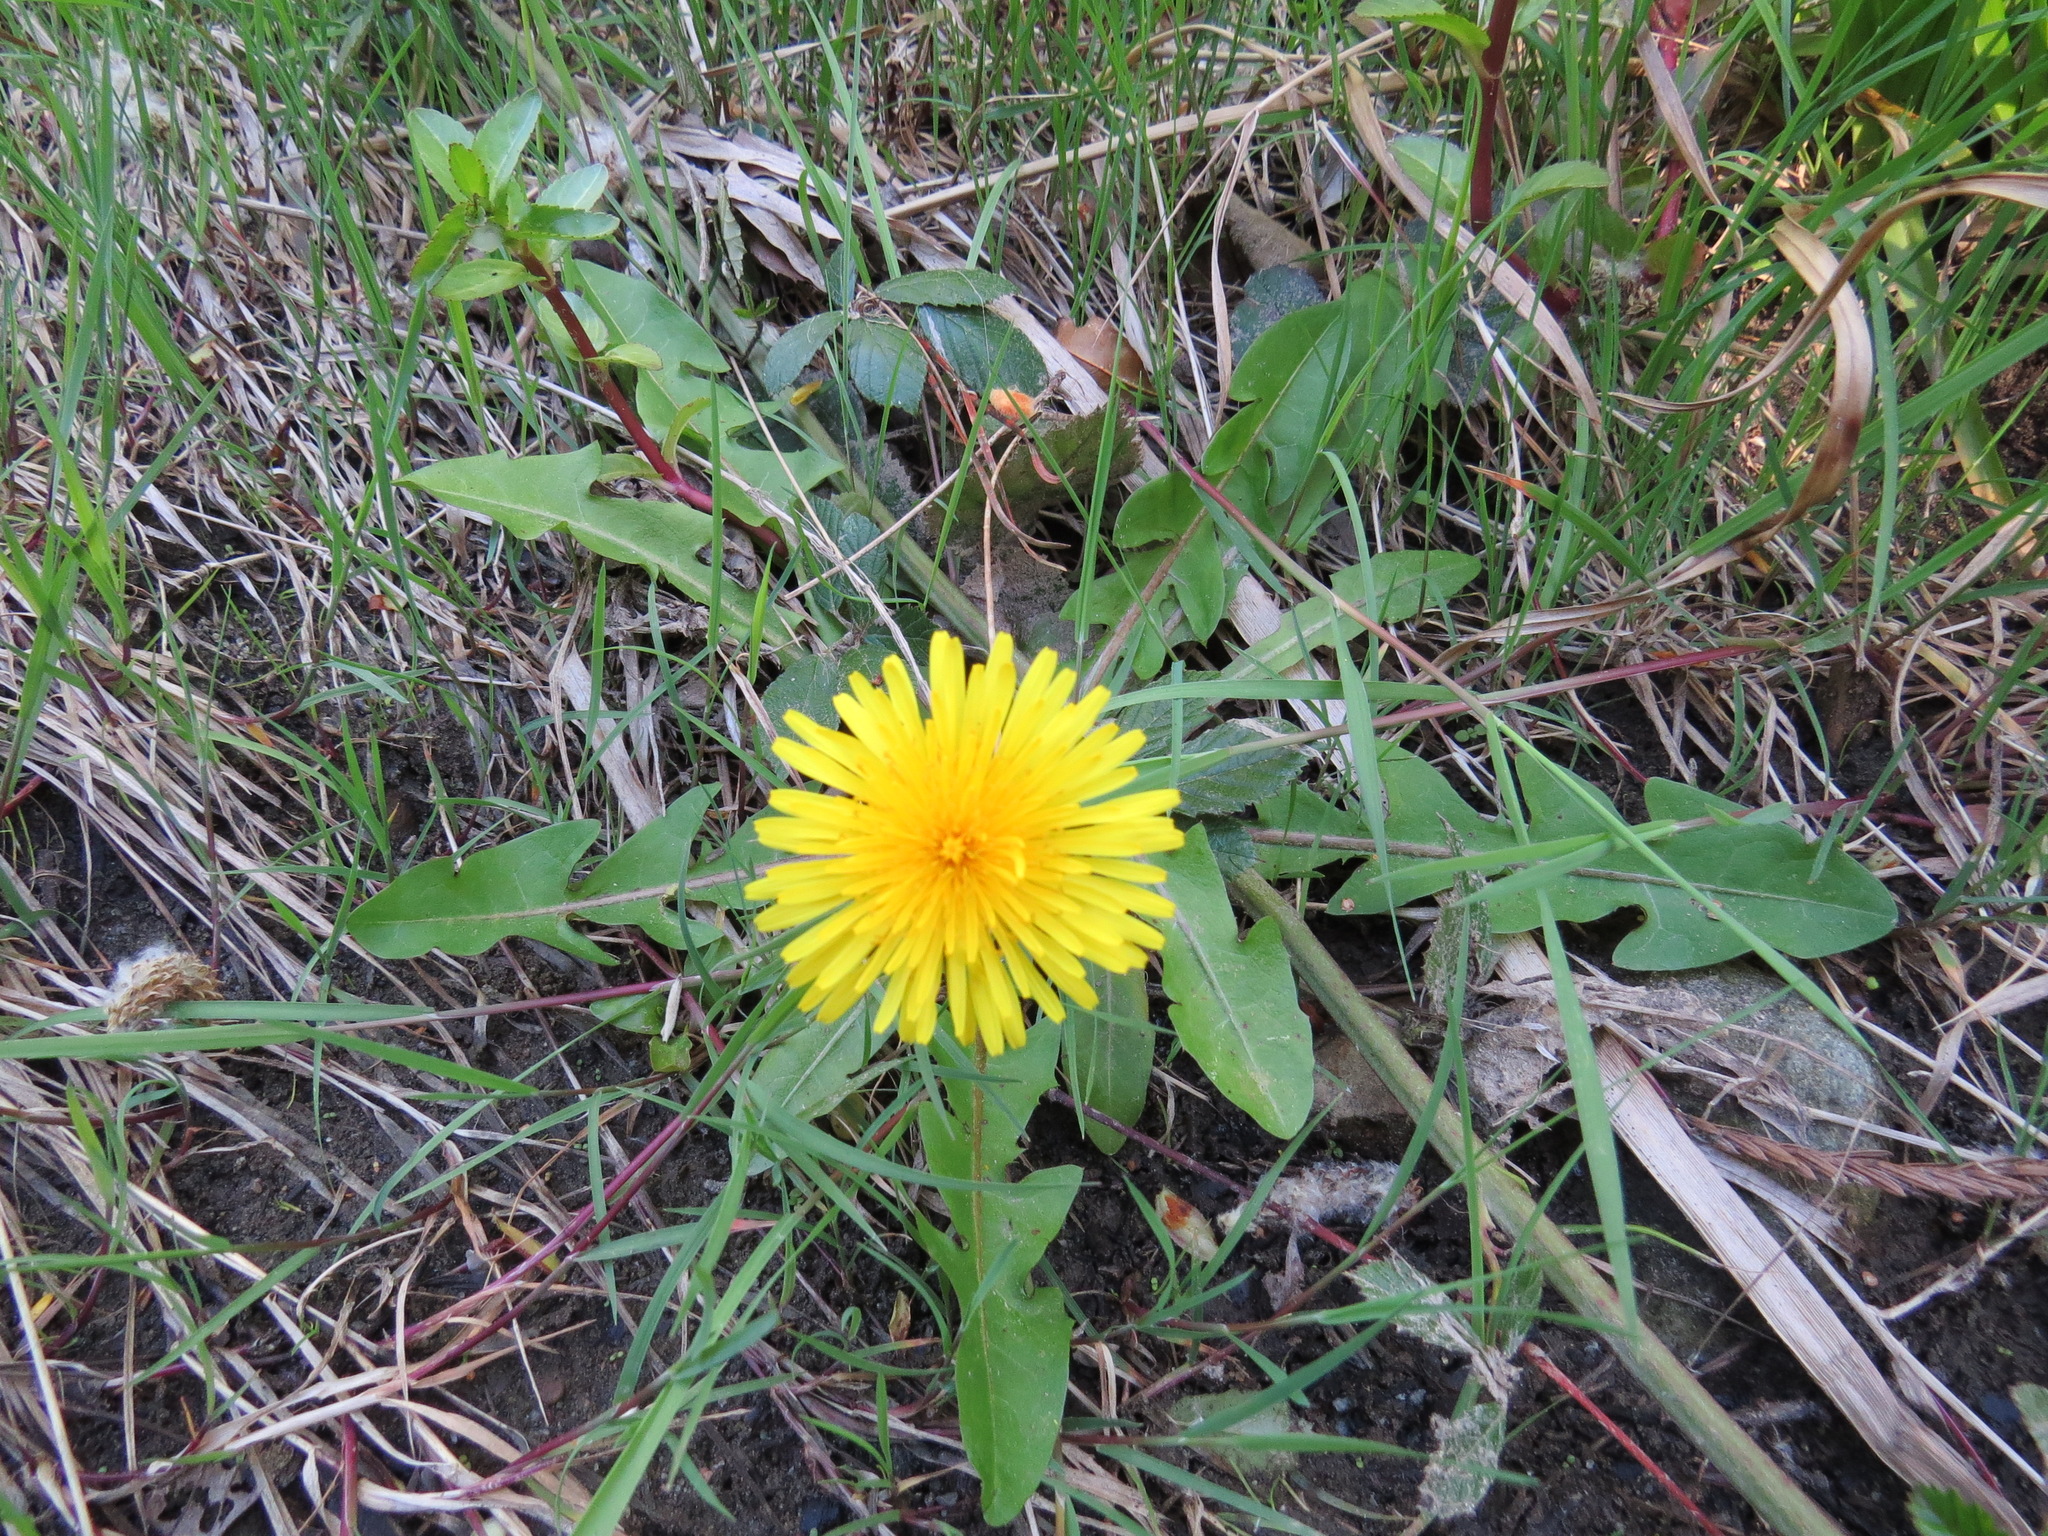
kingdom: Plantae
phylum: Tracheophyta
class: Magnoliopsida
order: Asterales
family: Asteraceae
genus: Taraxacum
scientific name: Taraxacum officinale
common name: Common dandelion
